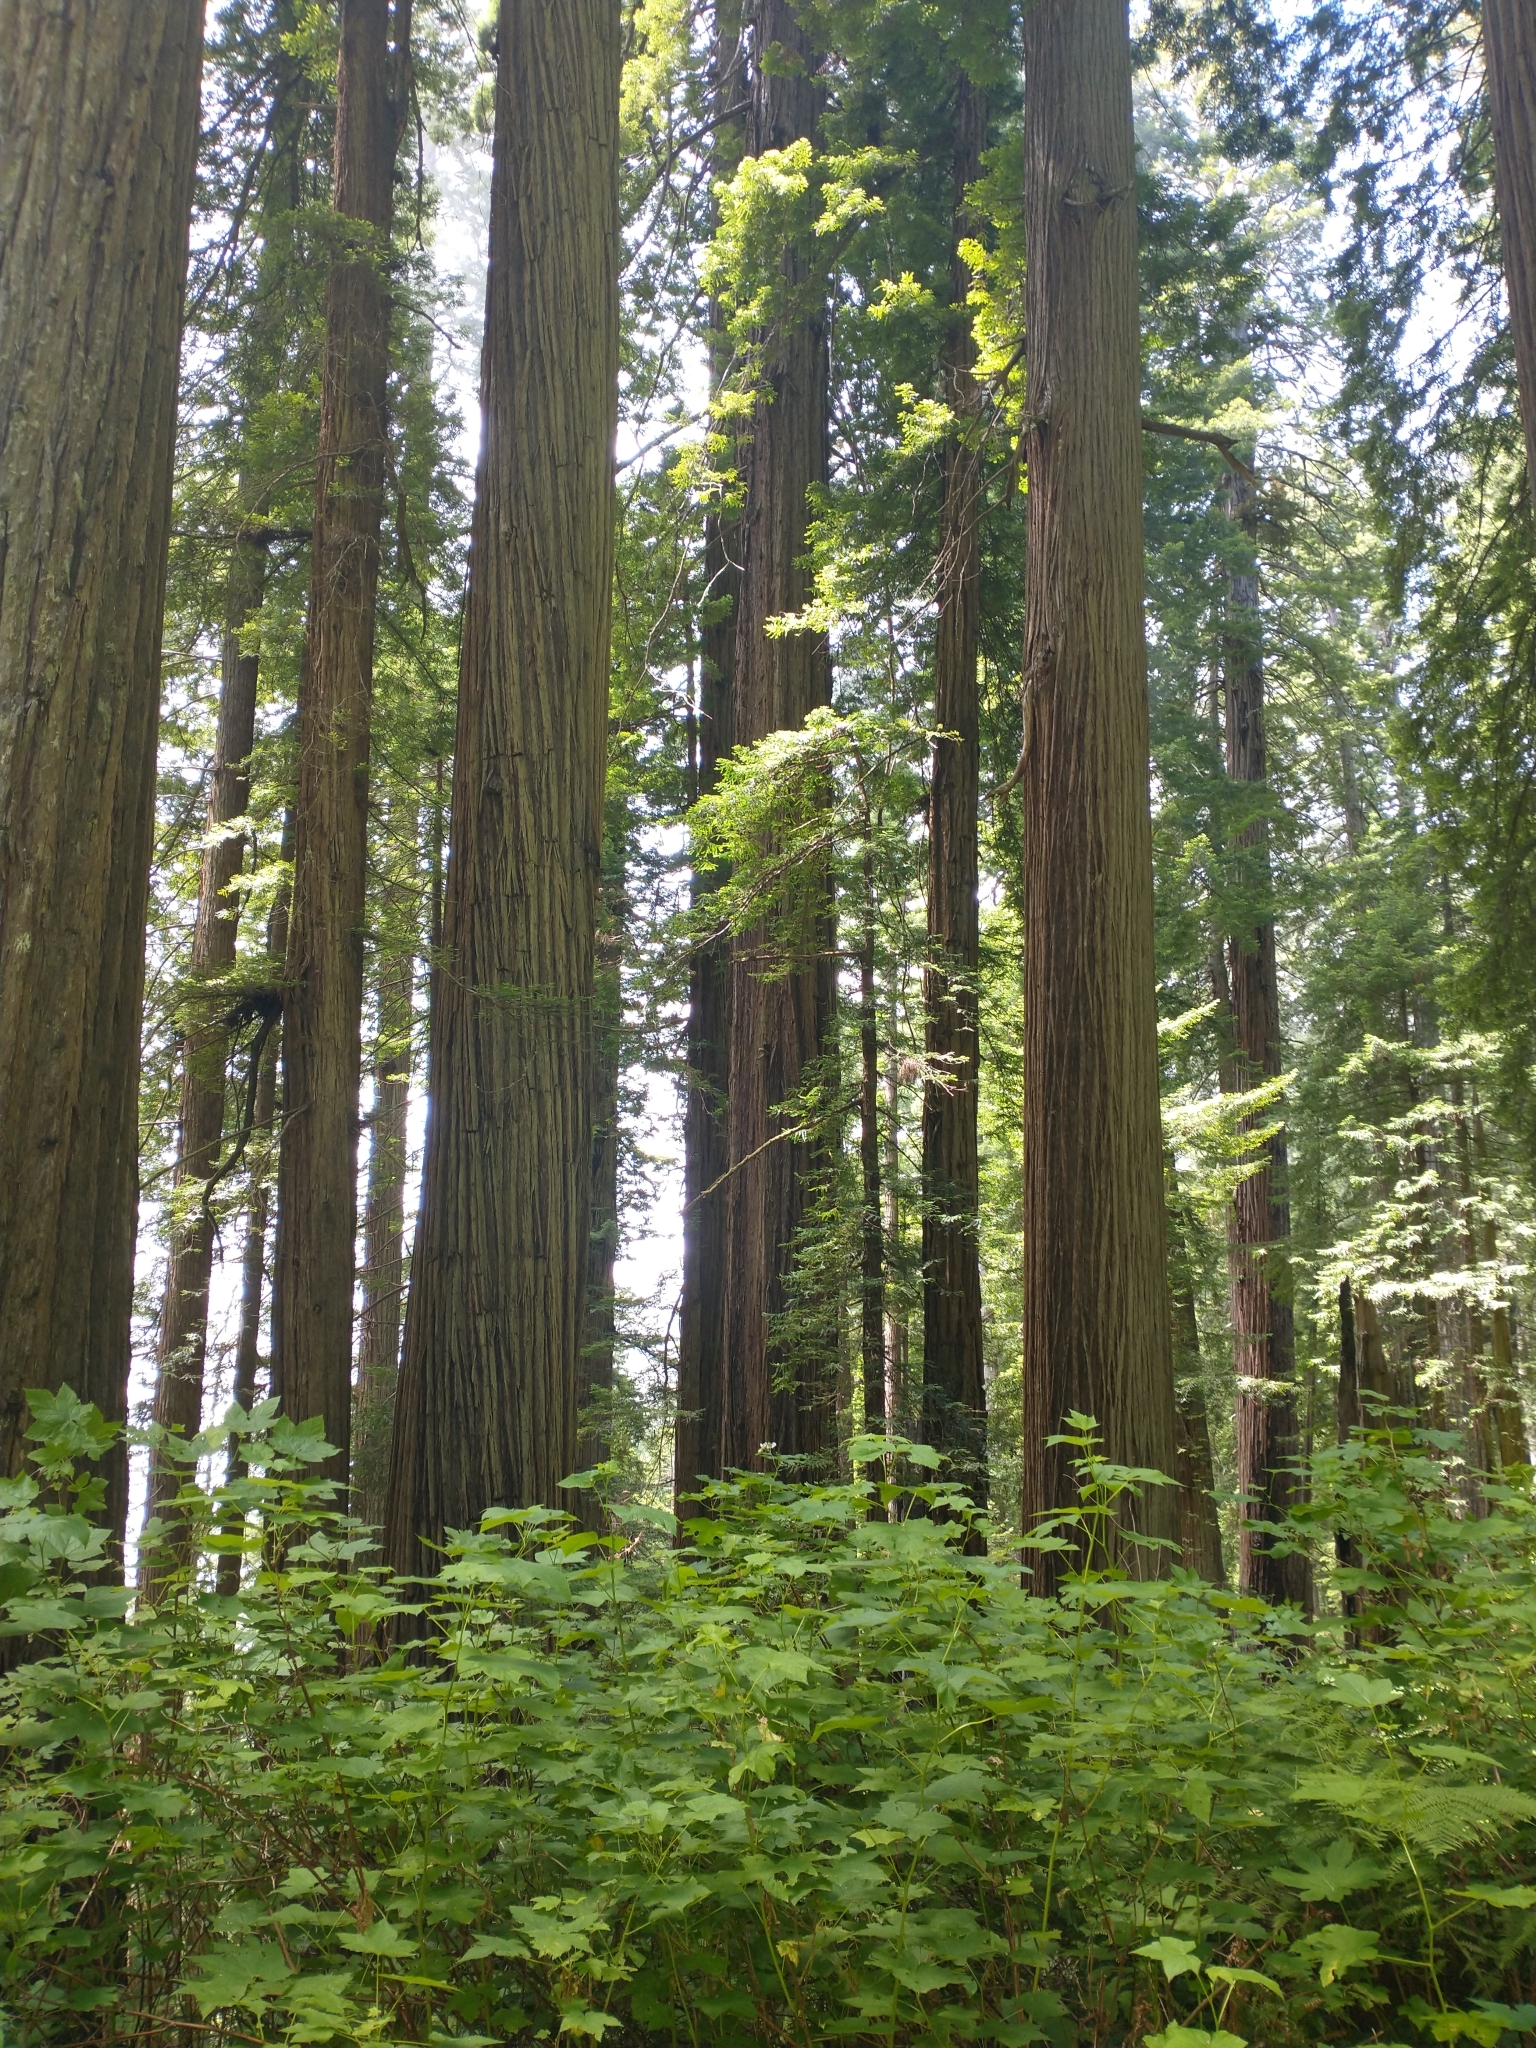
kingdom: Plantae
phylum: Tracheophyta
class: Magnoliopsida
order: Rosales
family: Rosaceae
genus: Rubus
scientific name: Rubus parviflorus
